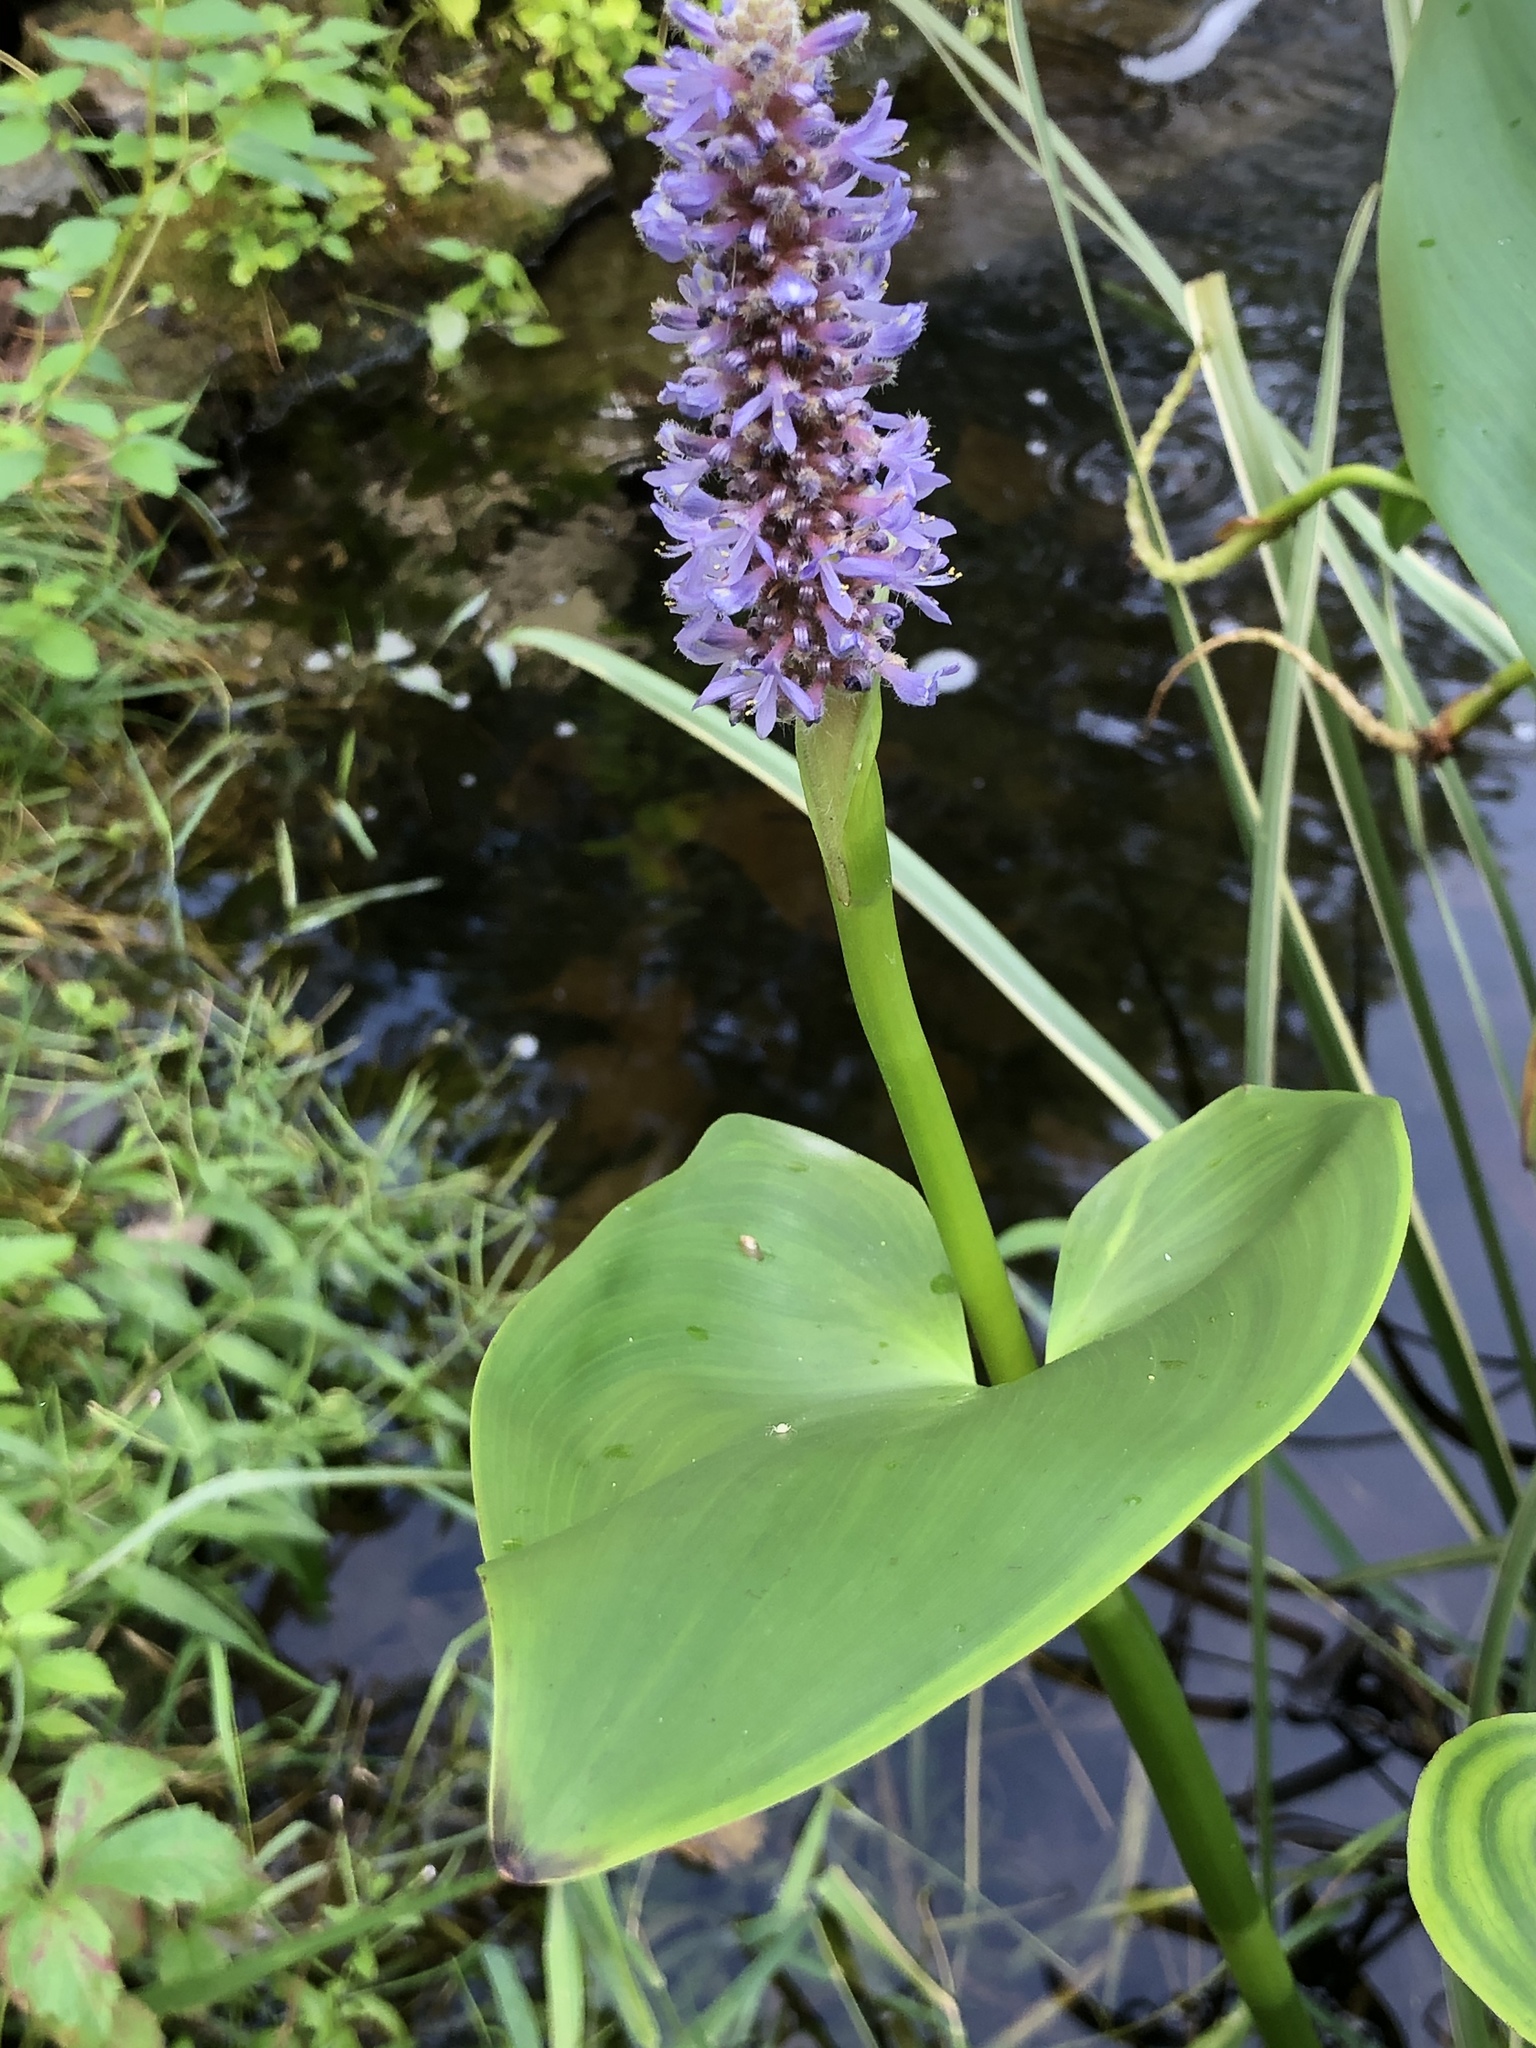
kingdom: Plantae
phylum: Tracheophyta
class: Liliopsida
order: Commelinales
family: Pontederiaceae
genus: Pontederia
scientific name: Pontederia cordata
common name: Pickerelweed
